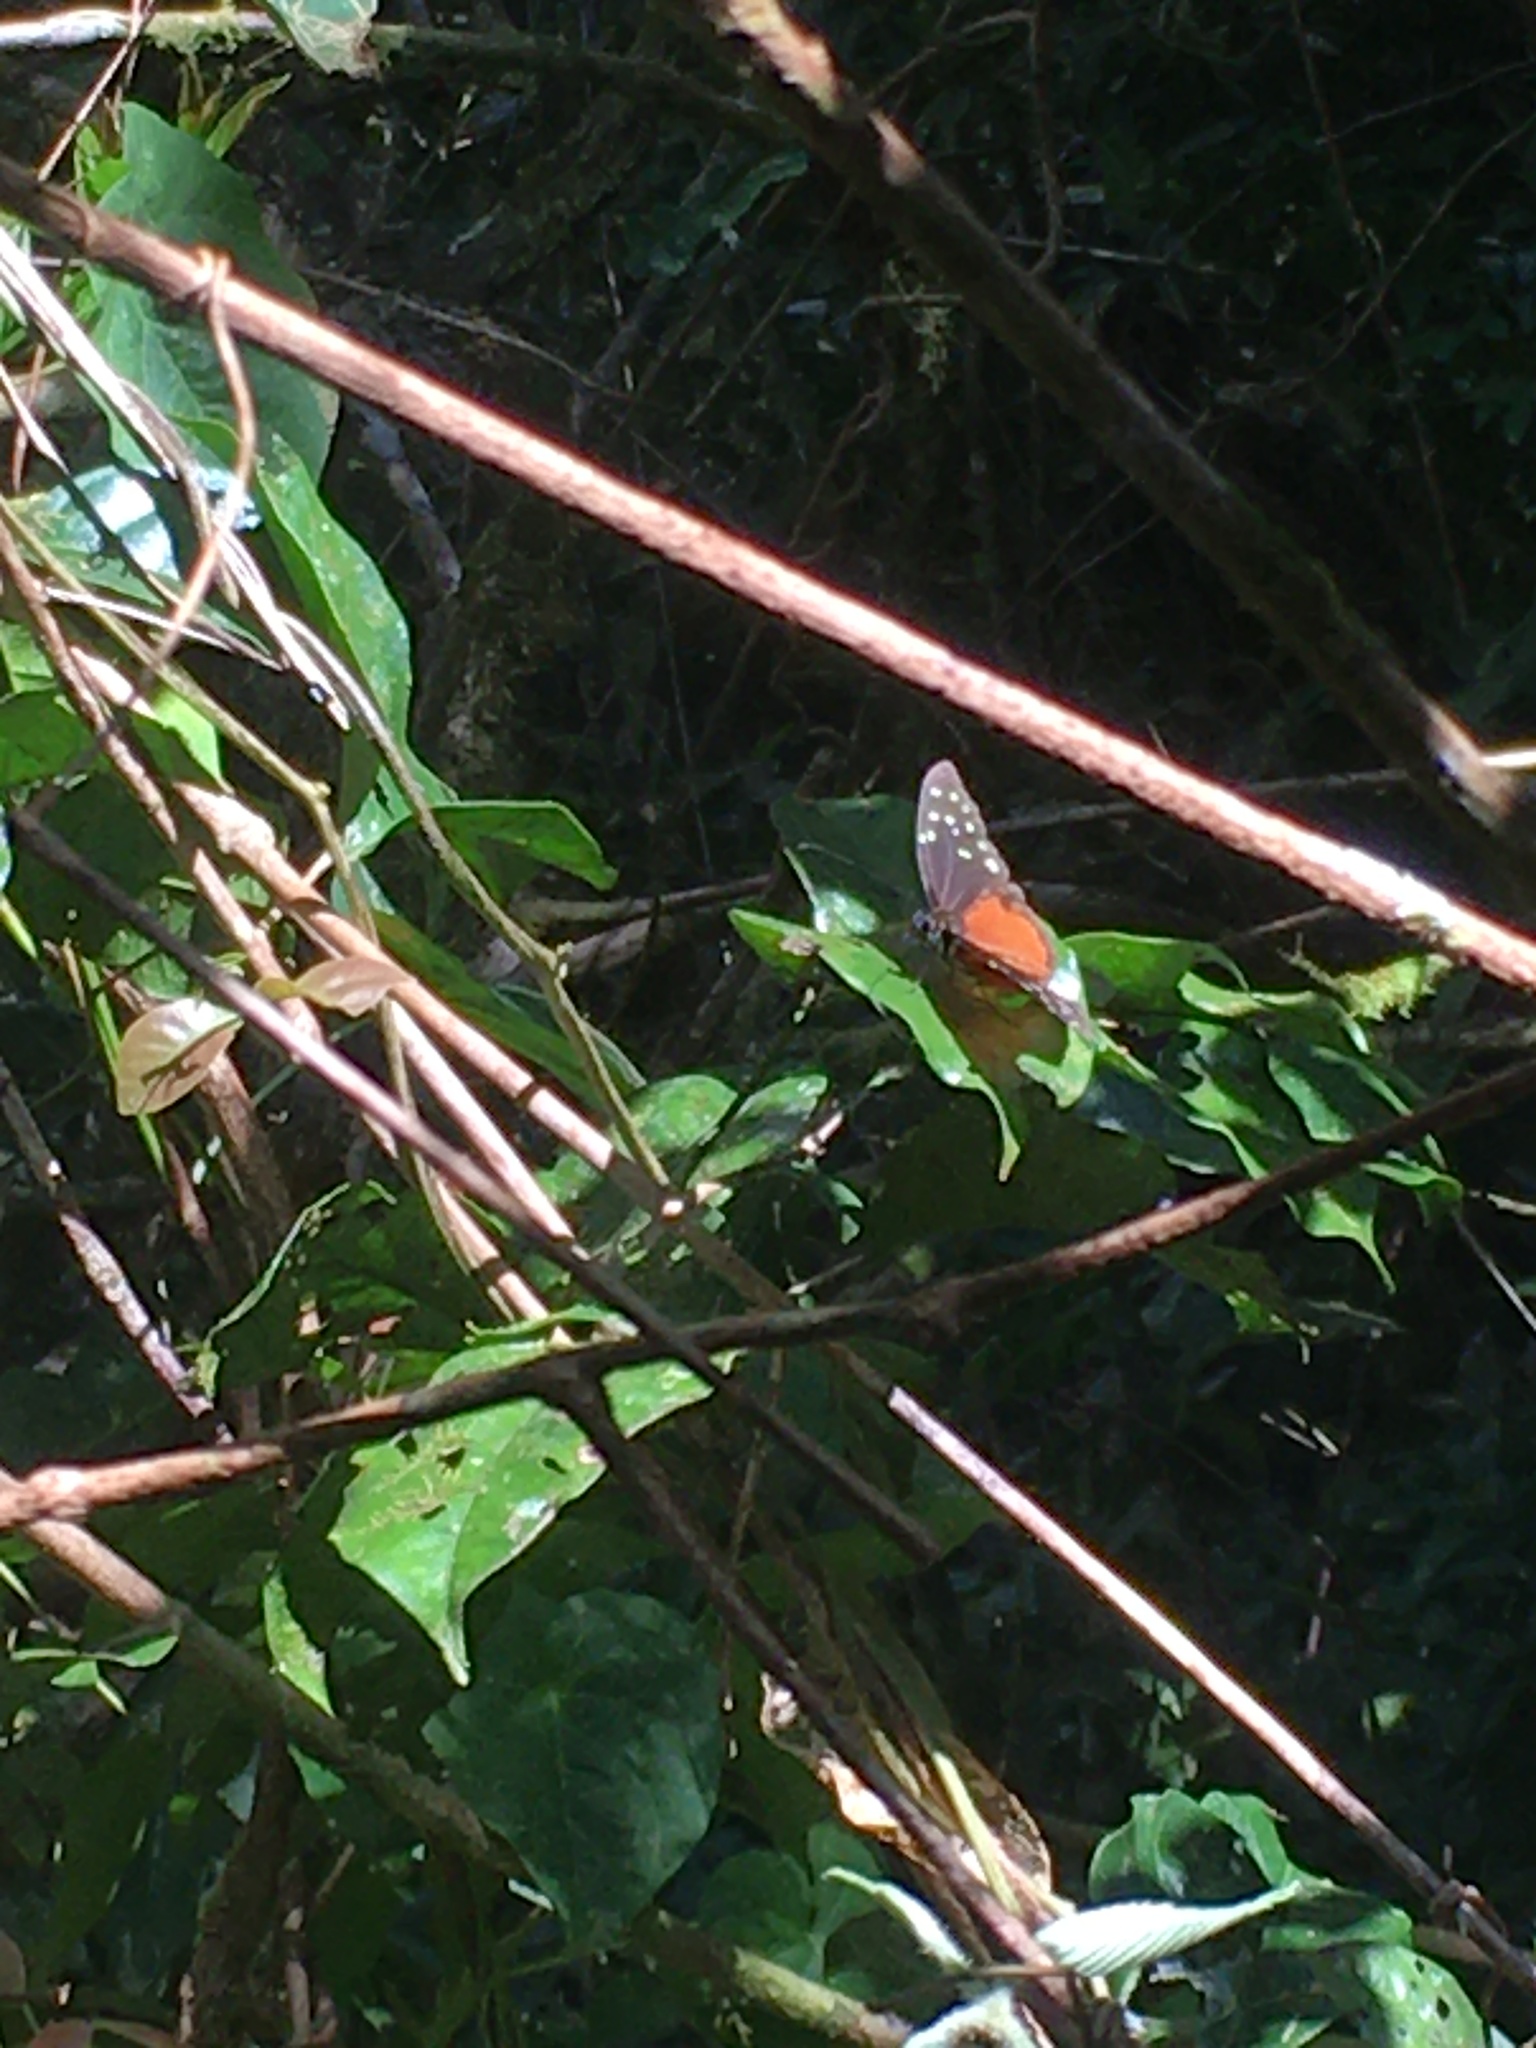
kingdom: Animalia
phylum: Arthropoda
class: Insecta
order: Lepidoptera
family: Nymphalidae
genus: Tithorea
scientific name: Tithorea tarricina
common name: Cream-spotted tigerwing
